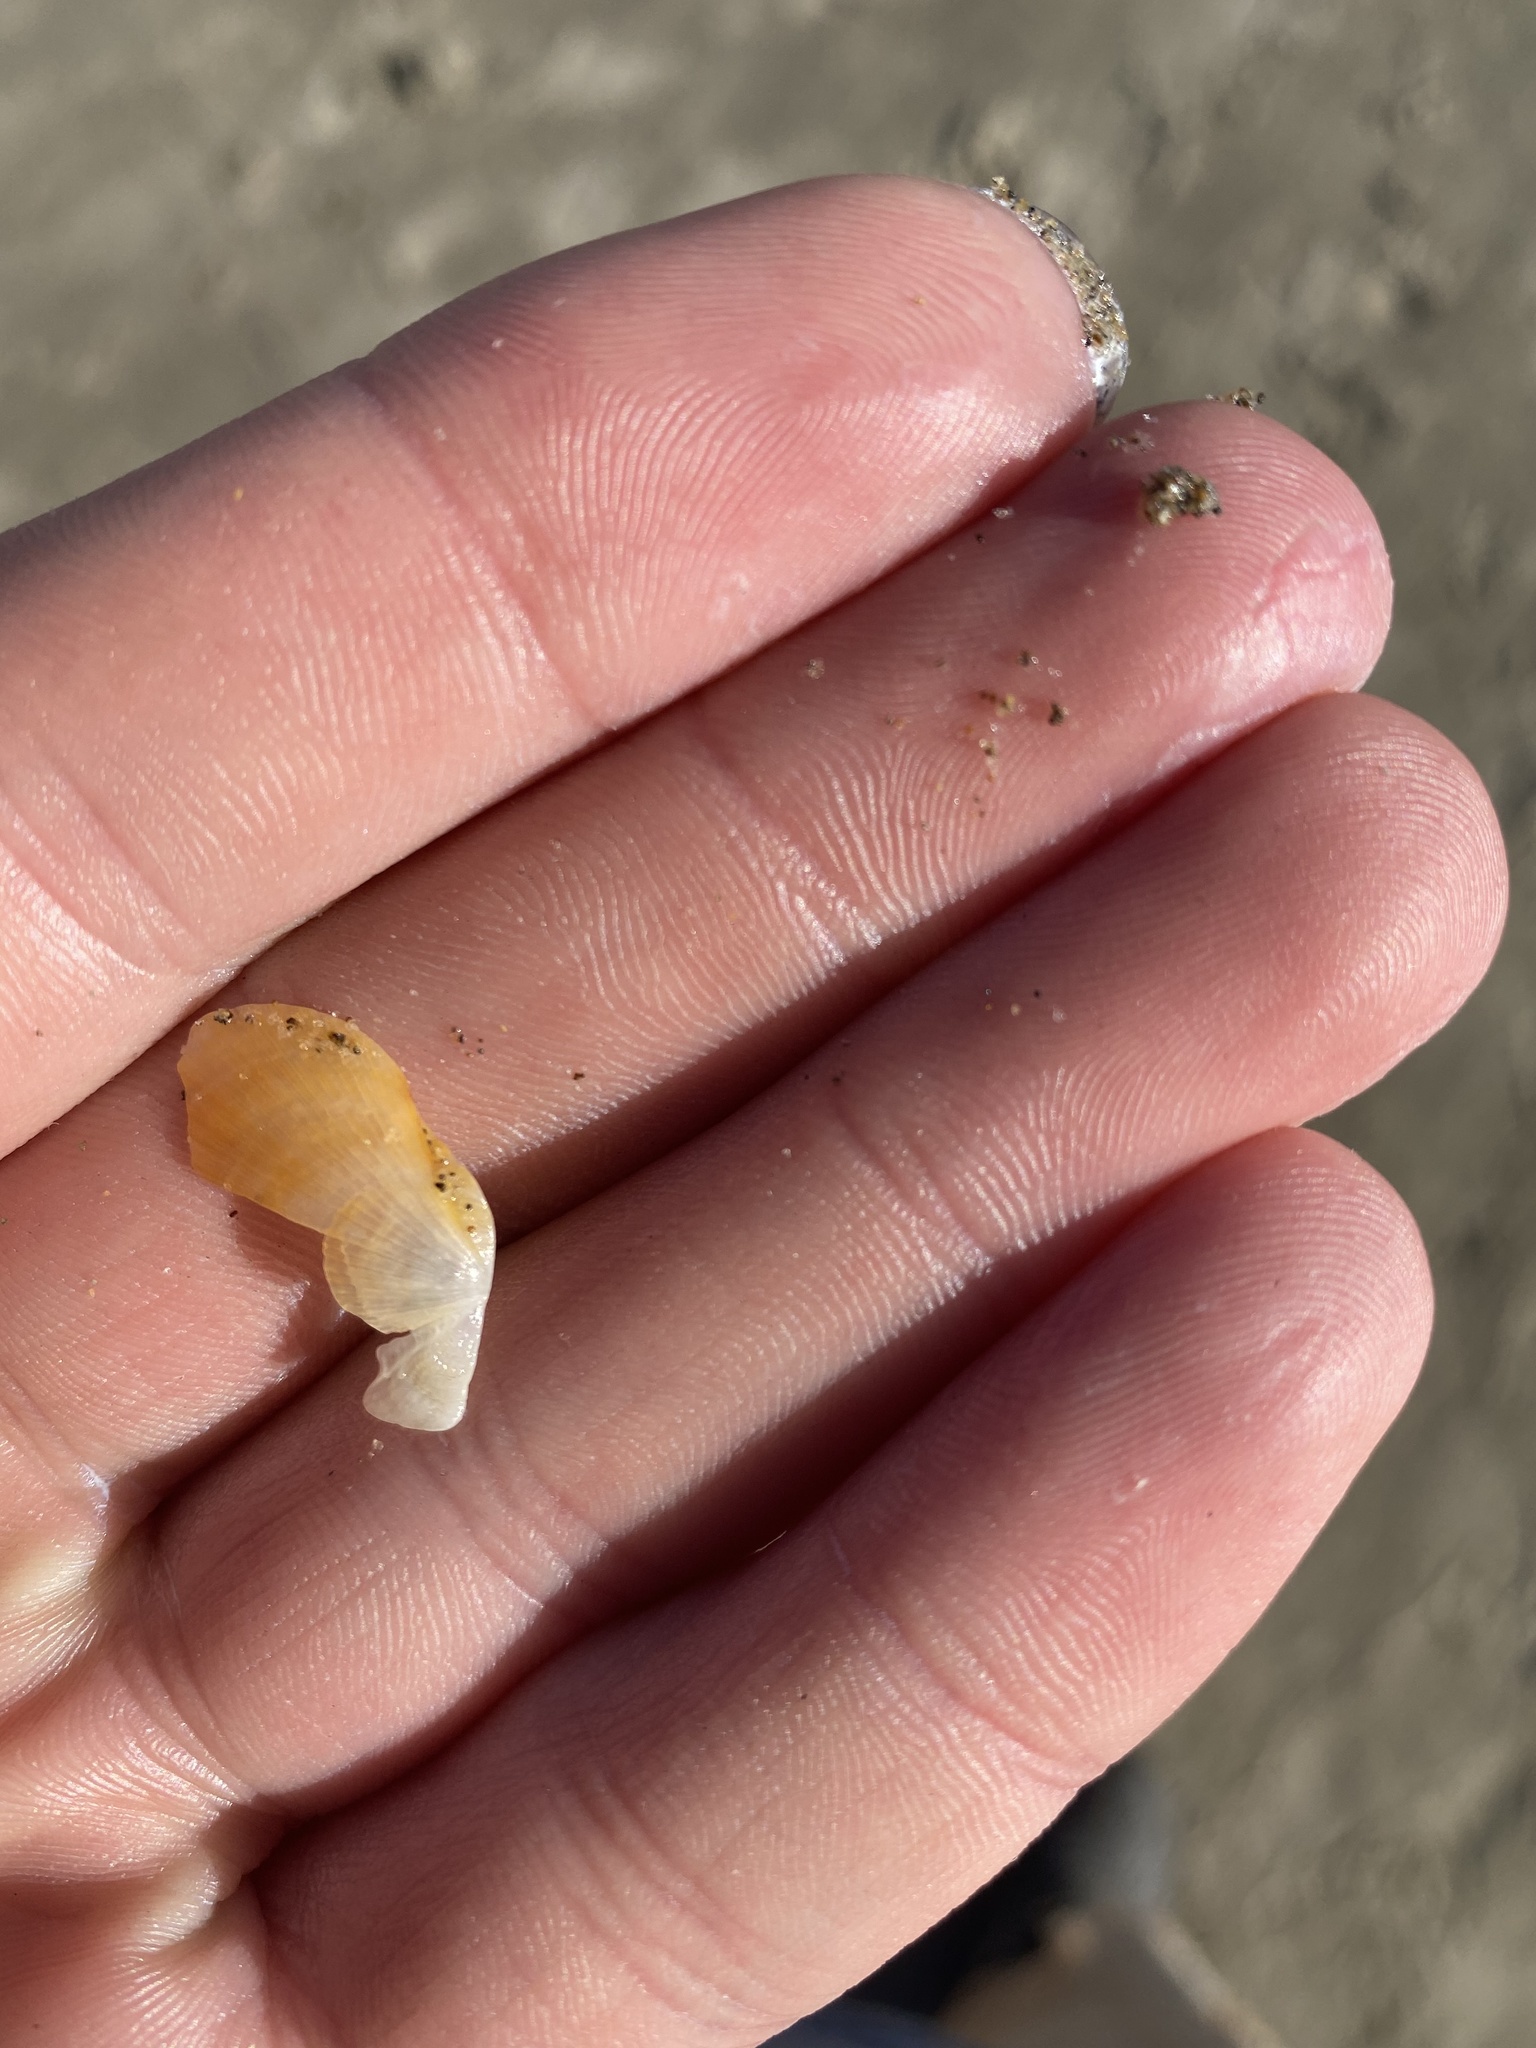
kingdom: Animalia
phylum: Mollusca
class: Bivalvia
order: Pectinida
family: Pectinidae
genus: Crassadoma
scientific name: Crassadoma gigantea
